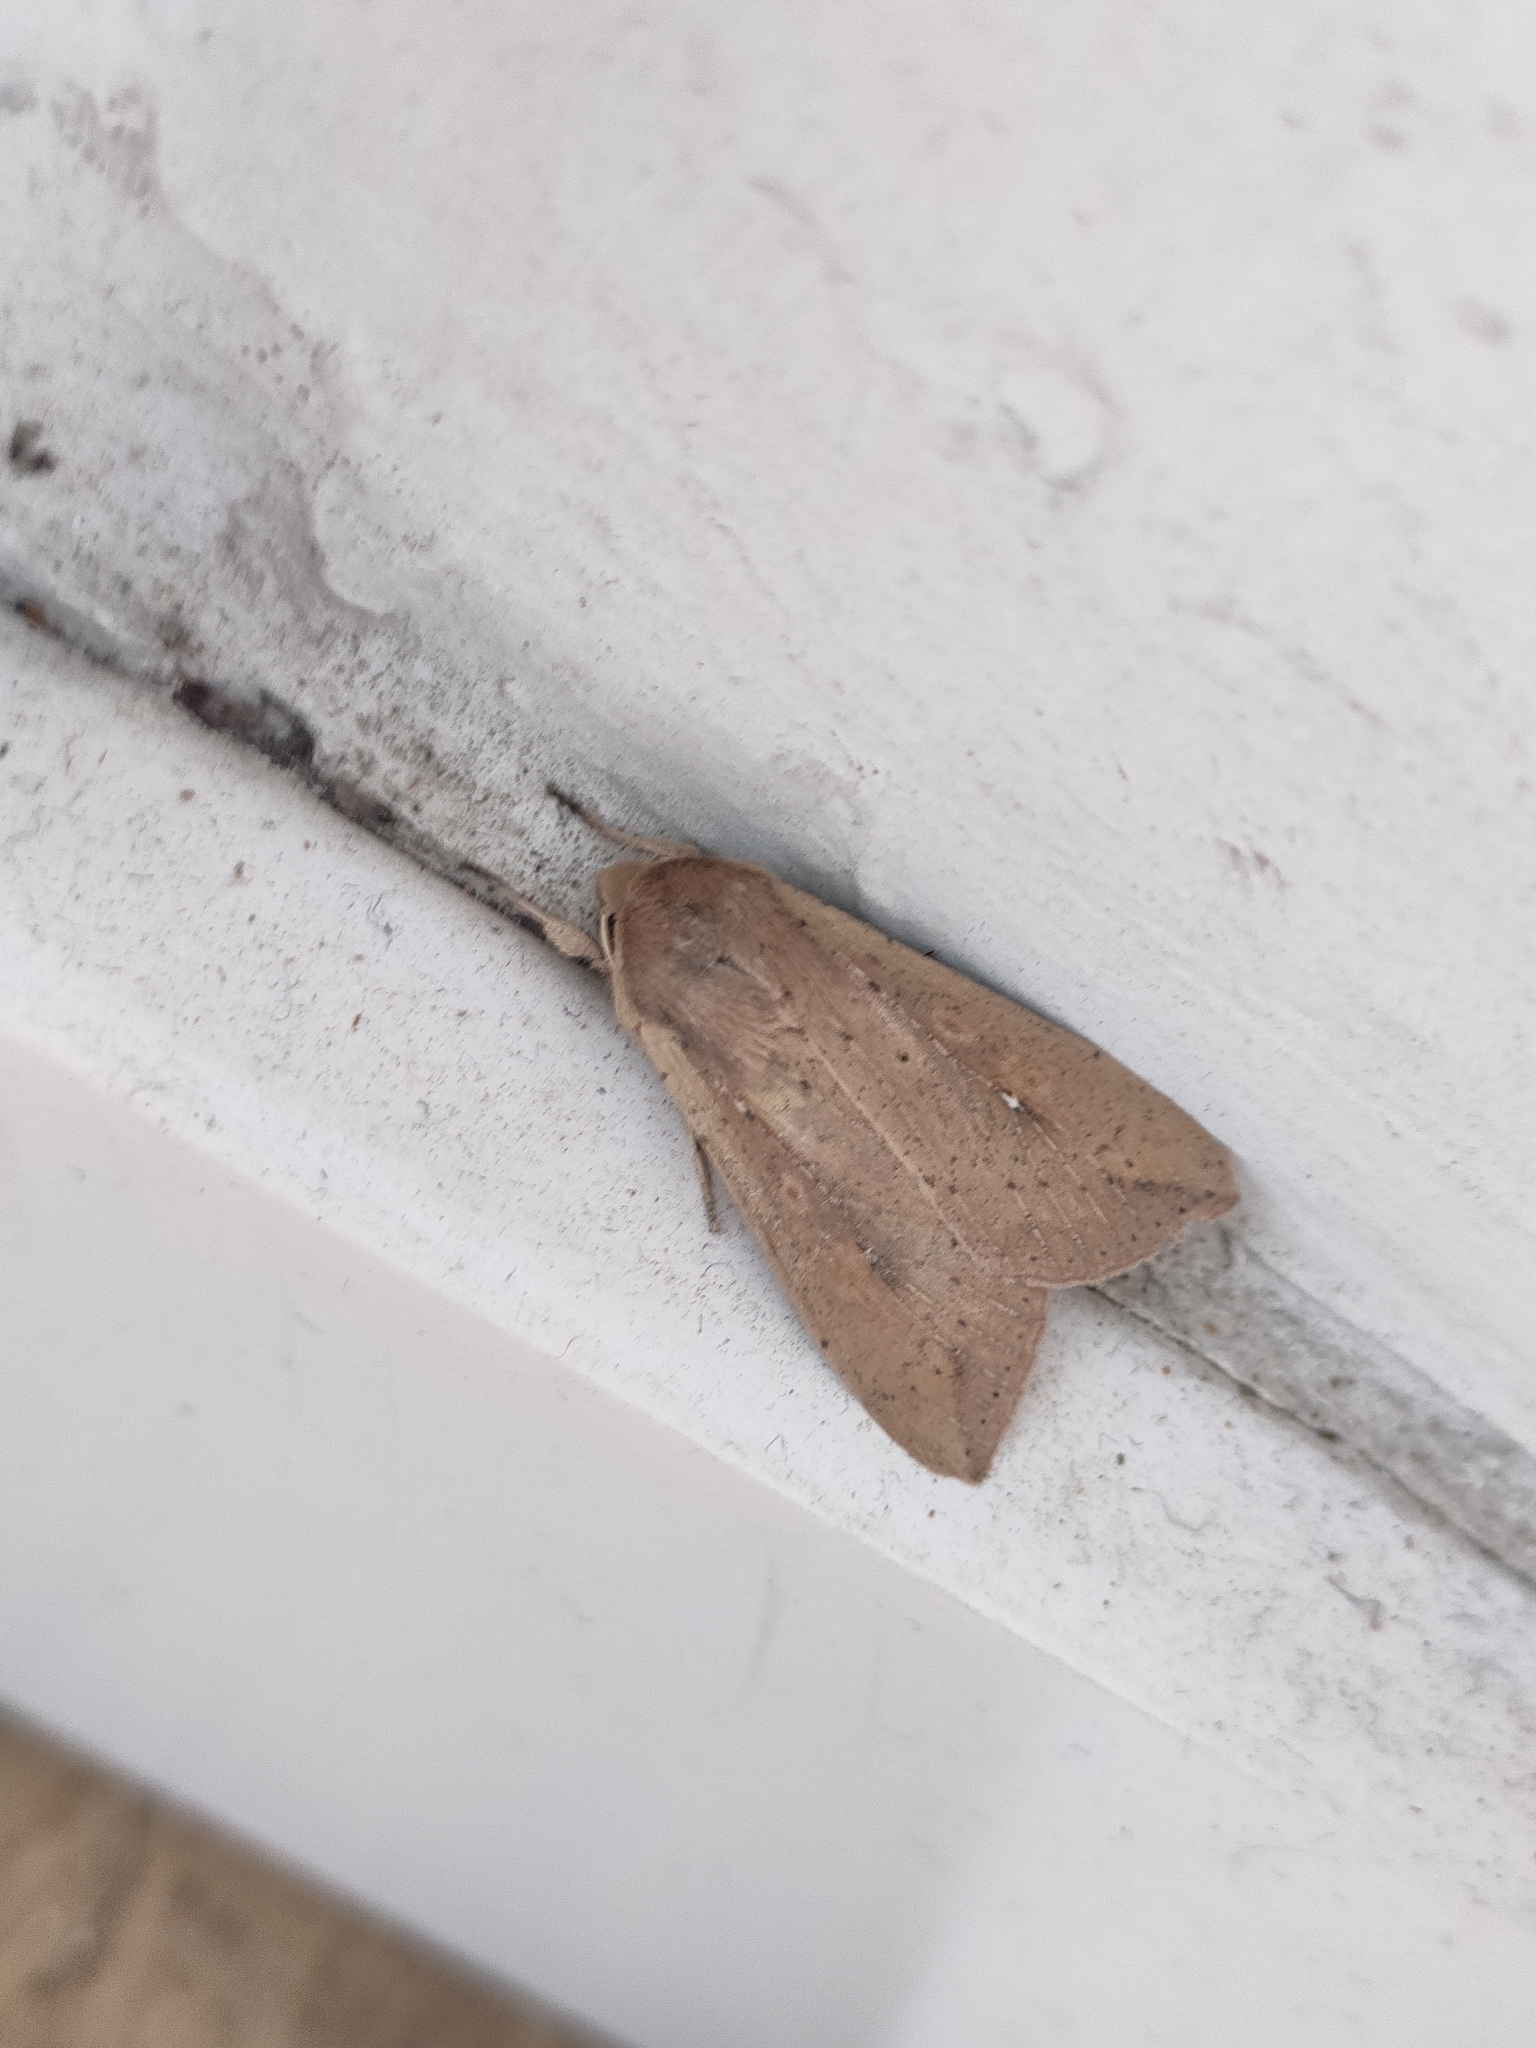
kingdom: Animalia
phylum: Arthropoda
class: Insecta
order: Lepidoptera
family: Noctuidae
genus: Mythimna
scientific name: Mythimna unipuncta
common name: White-speck
